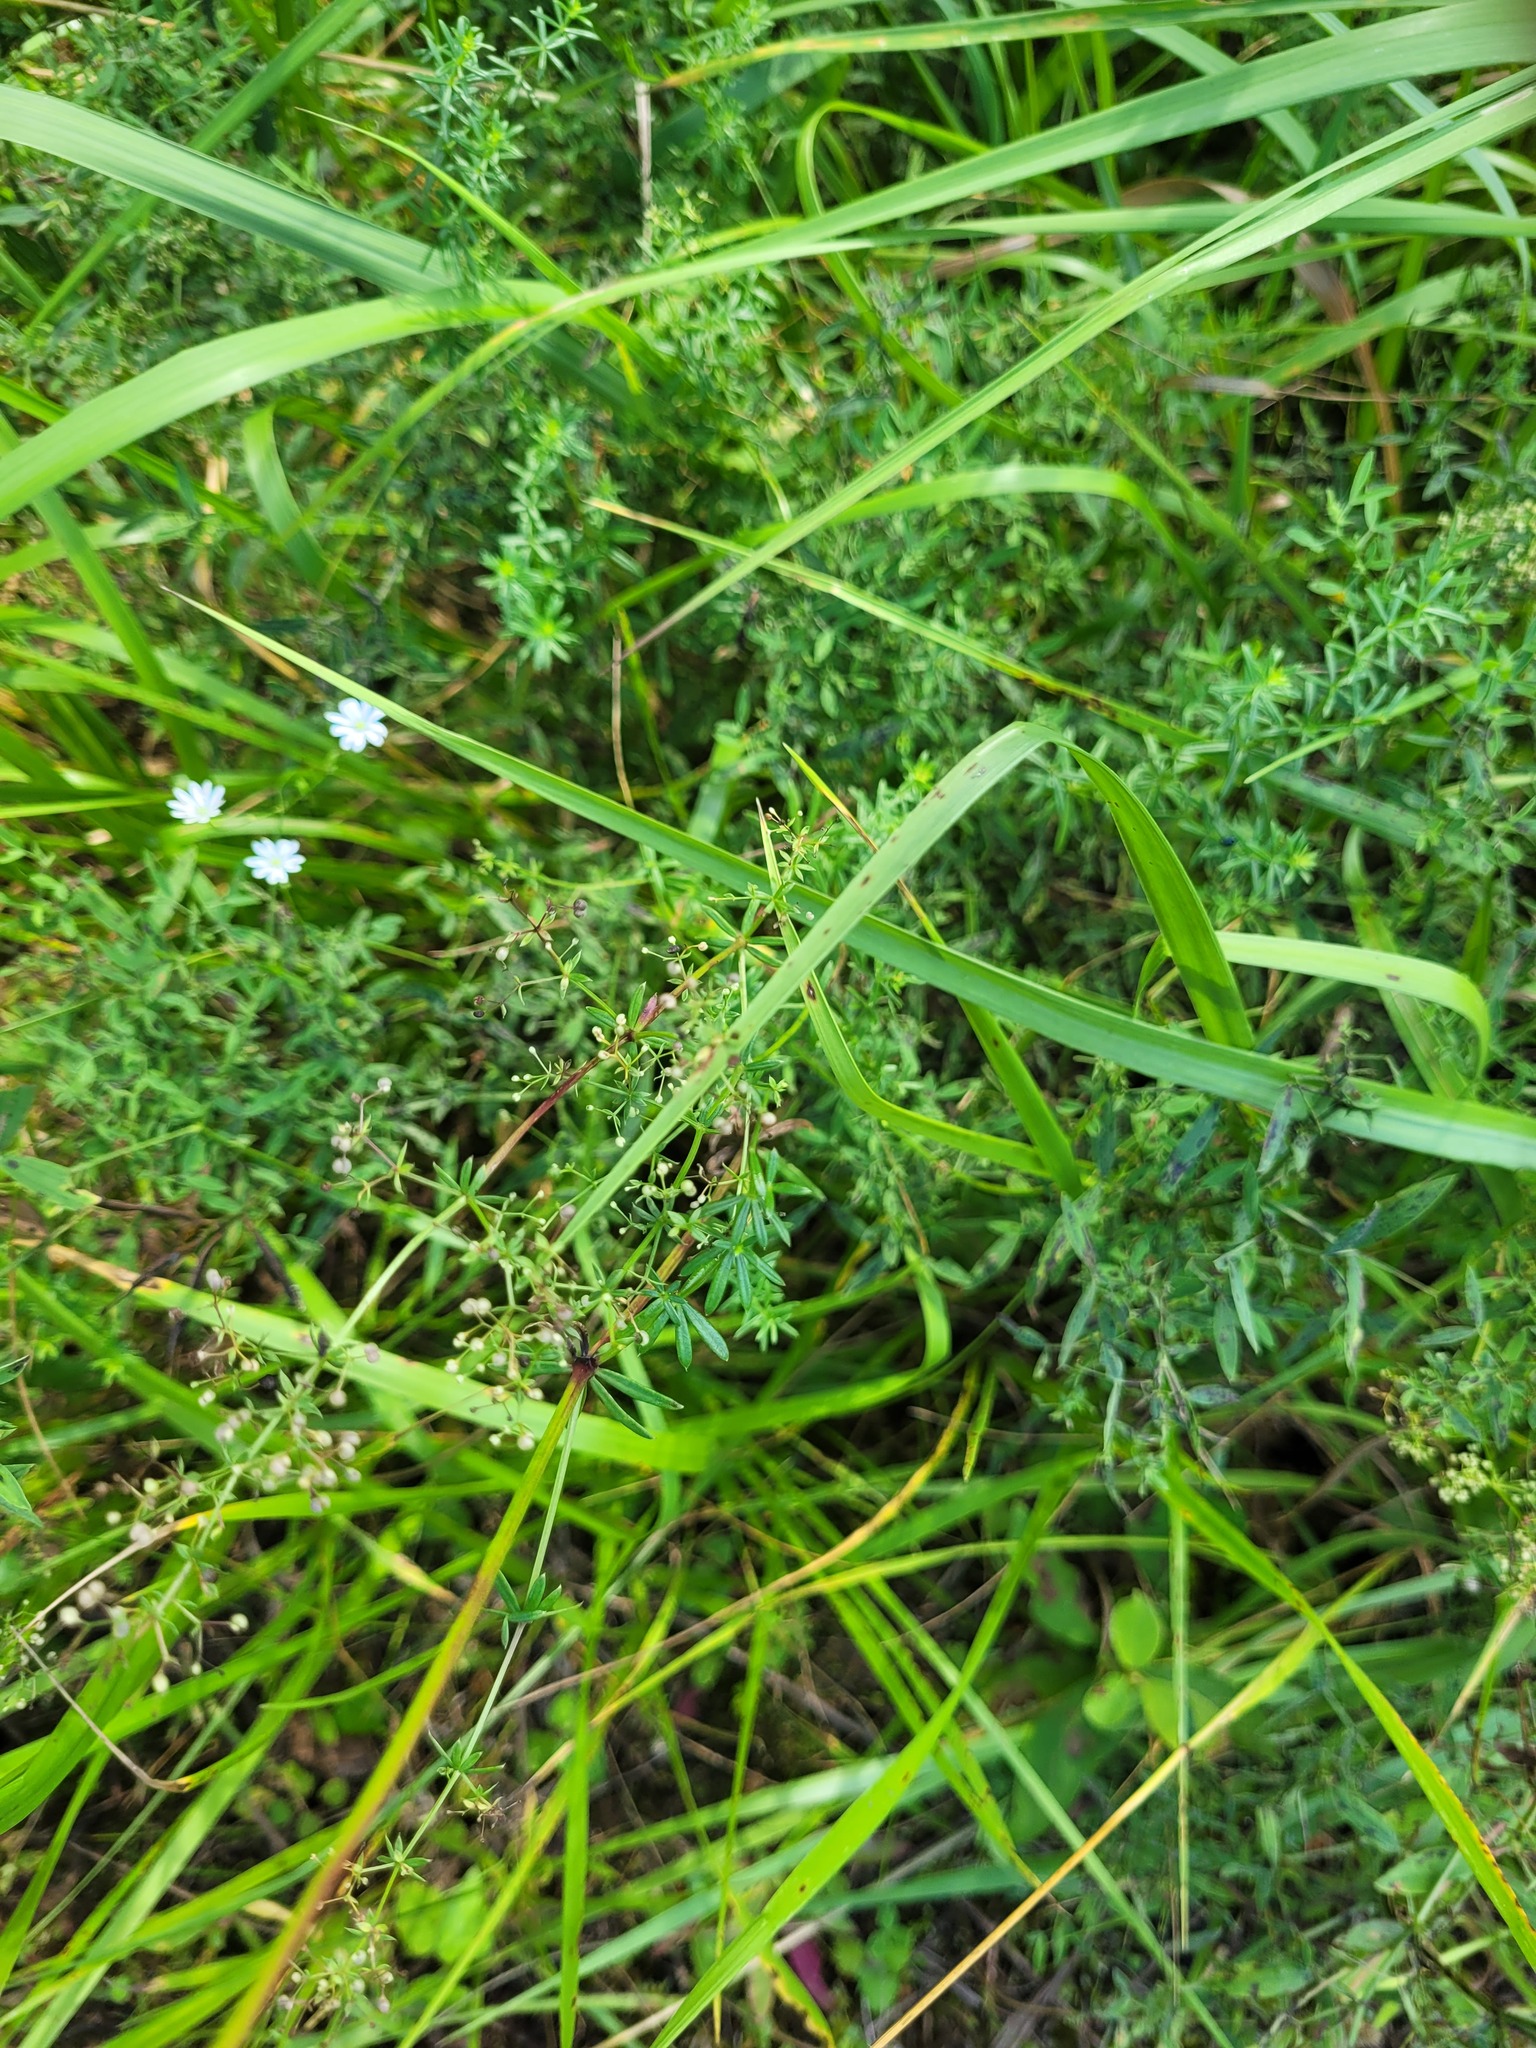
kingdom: Plantae
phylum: Tracheophyta
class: Magnoliopsida
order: Gentianales
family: Rubiaceae
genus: Galium
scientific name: Galium mollugo
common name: Hedge bedstraw
